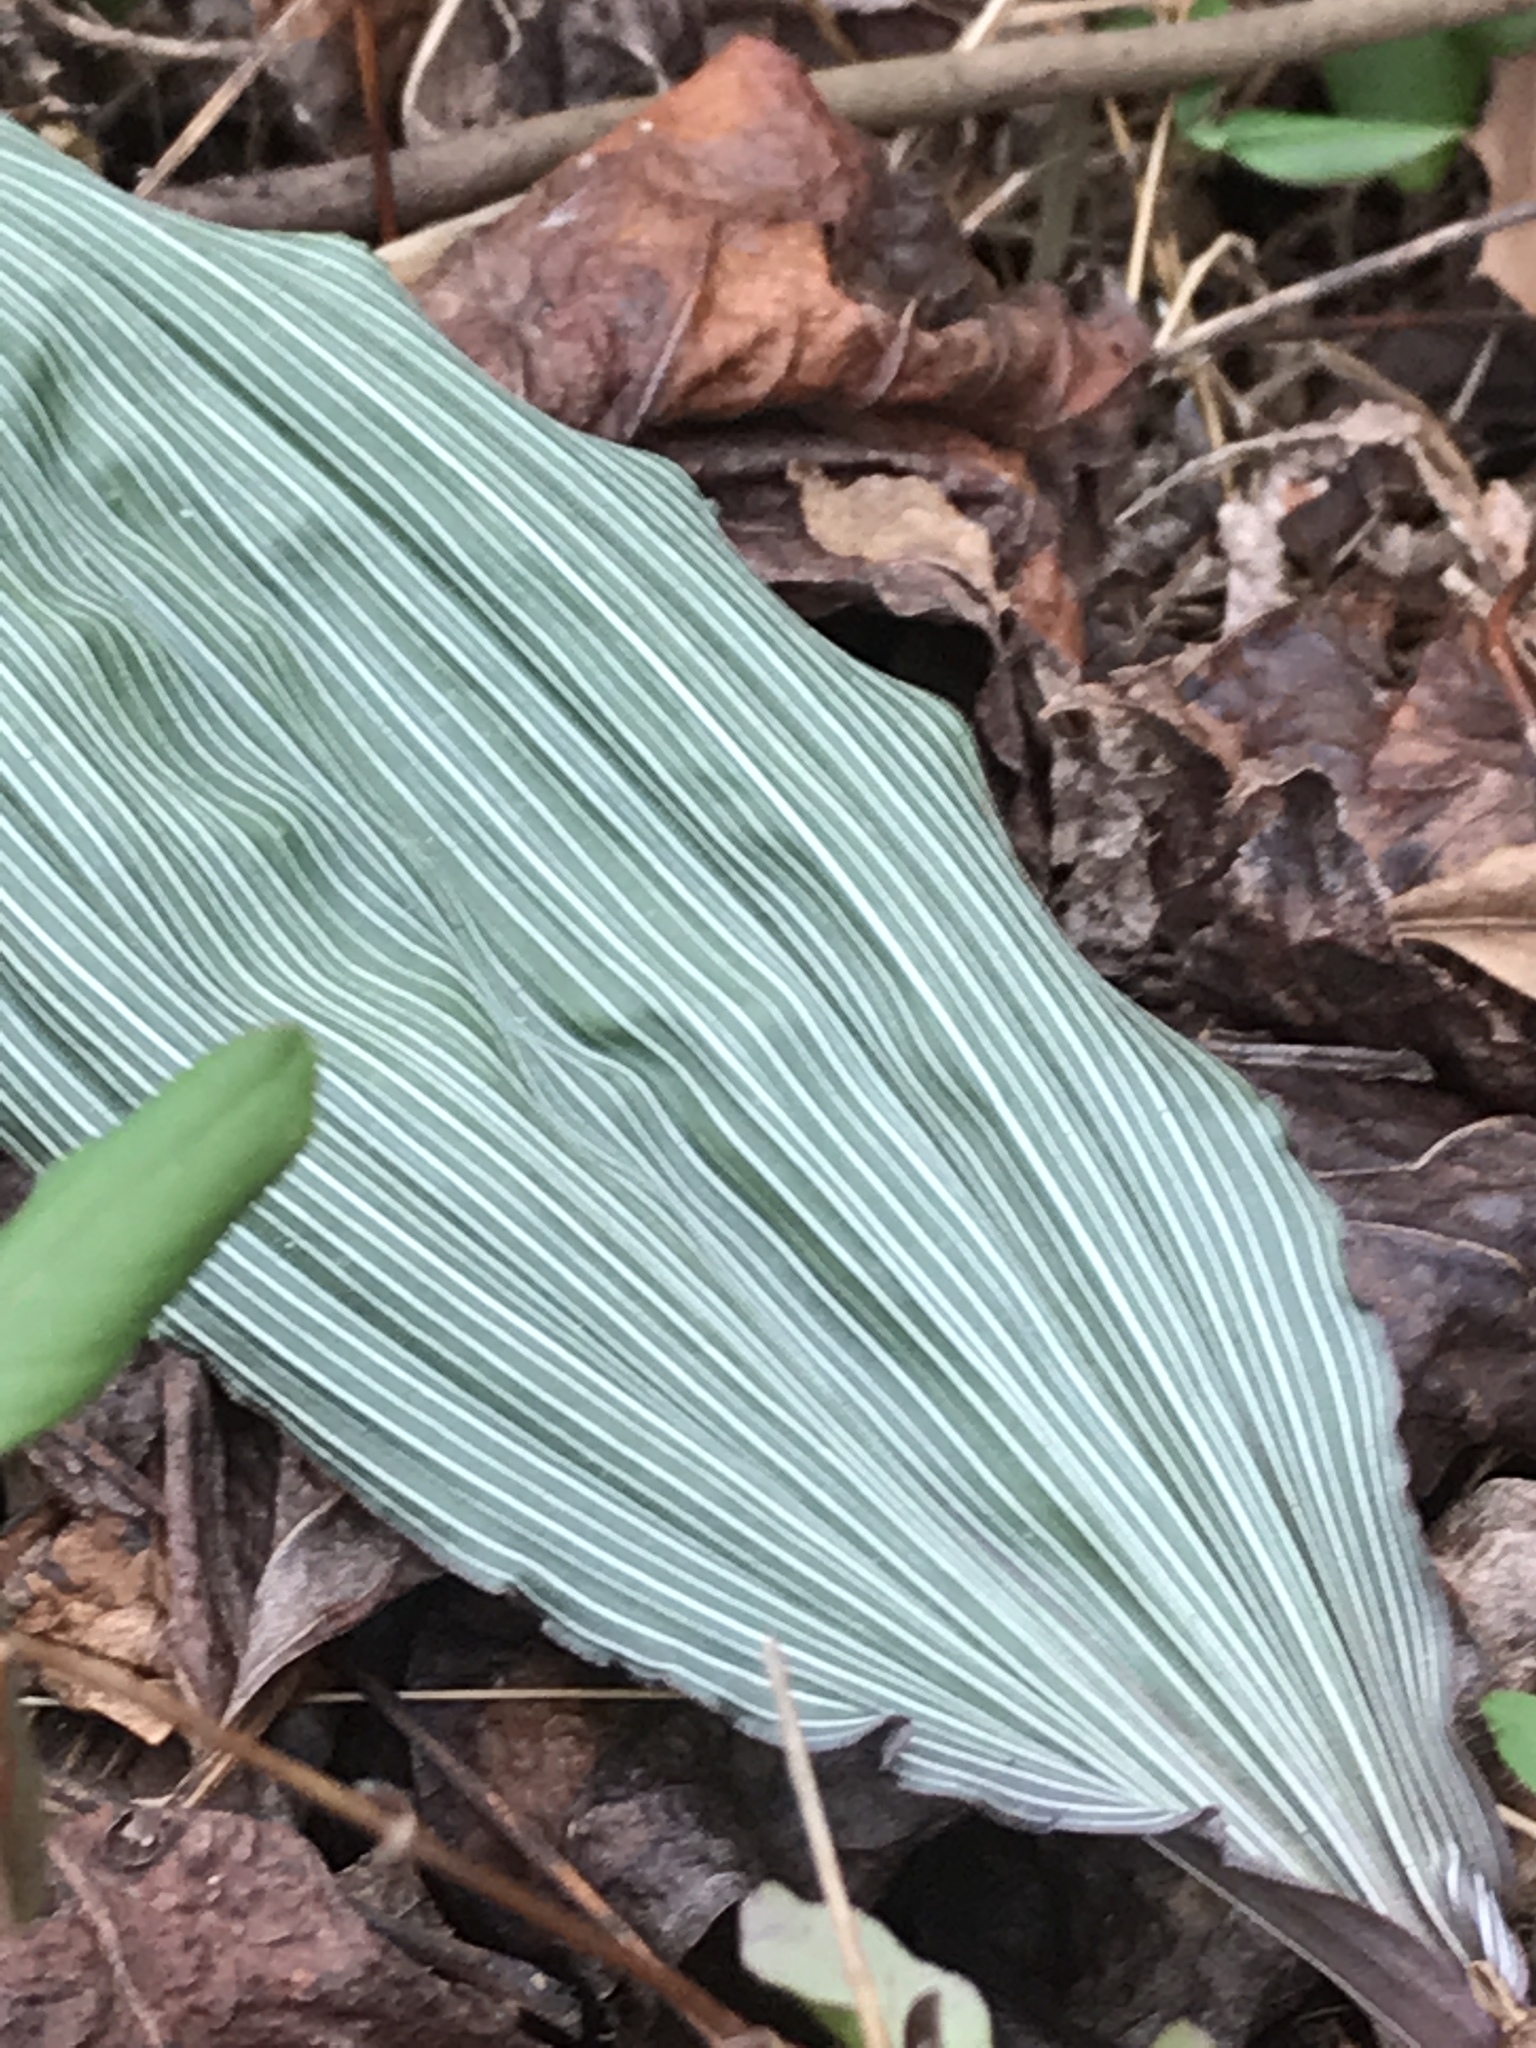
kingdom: Plantae
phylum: Tracheophyta
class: Liliopsida
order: Asparagales
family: Orchidaceae
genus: Aplectrum
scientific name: Aplectrum hyemale
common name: Adam-and-eve
